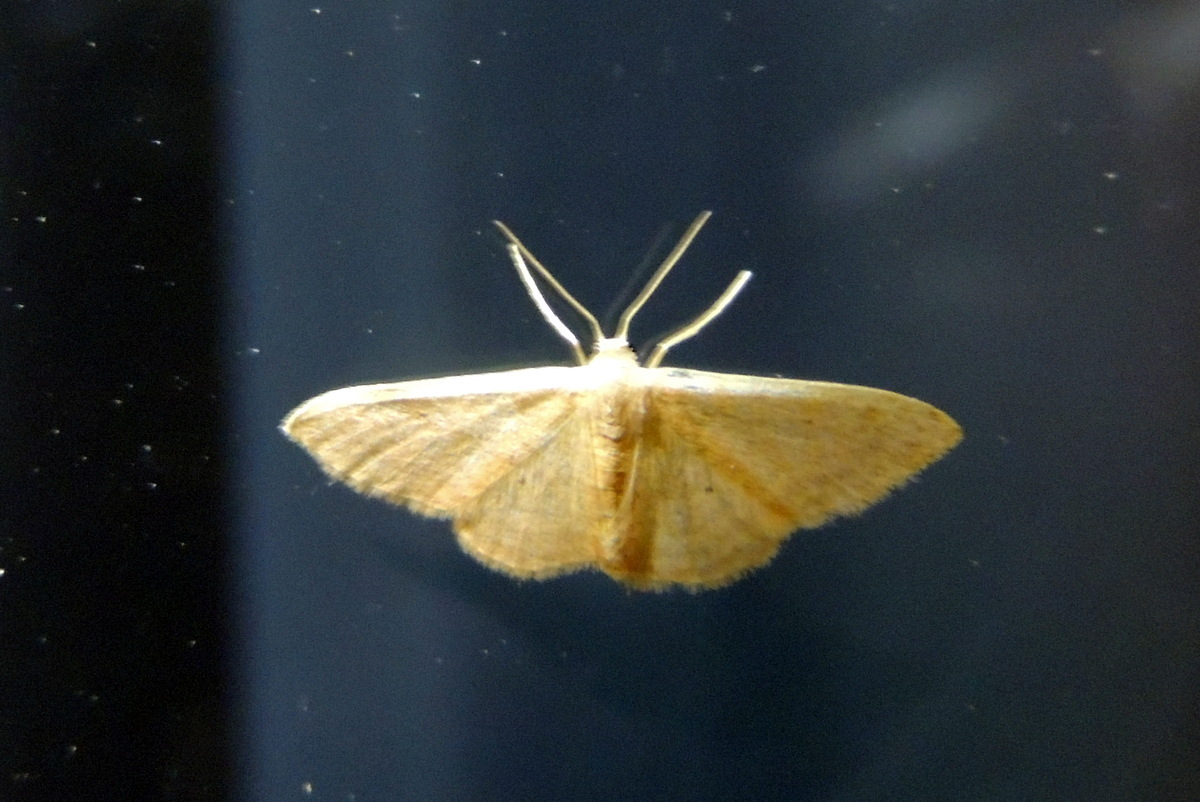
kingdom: Animalia
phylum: Arthropoda
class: Insecta
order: Lepidoptera
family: Geometridae
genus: Idaea
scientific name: Idaea distinctaria
